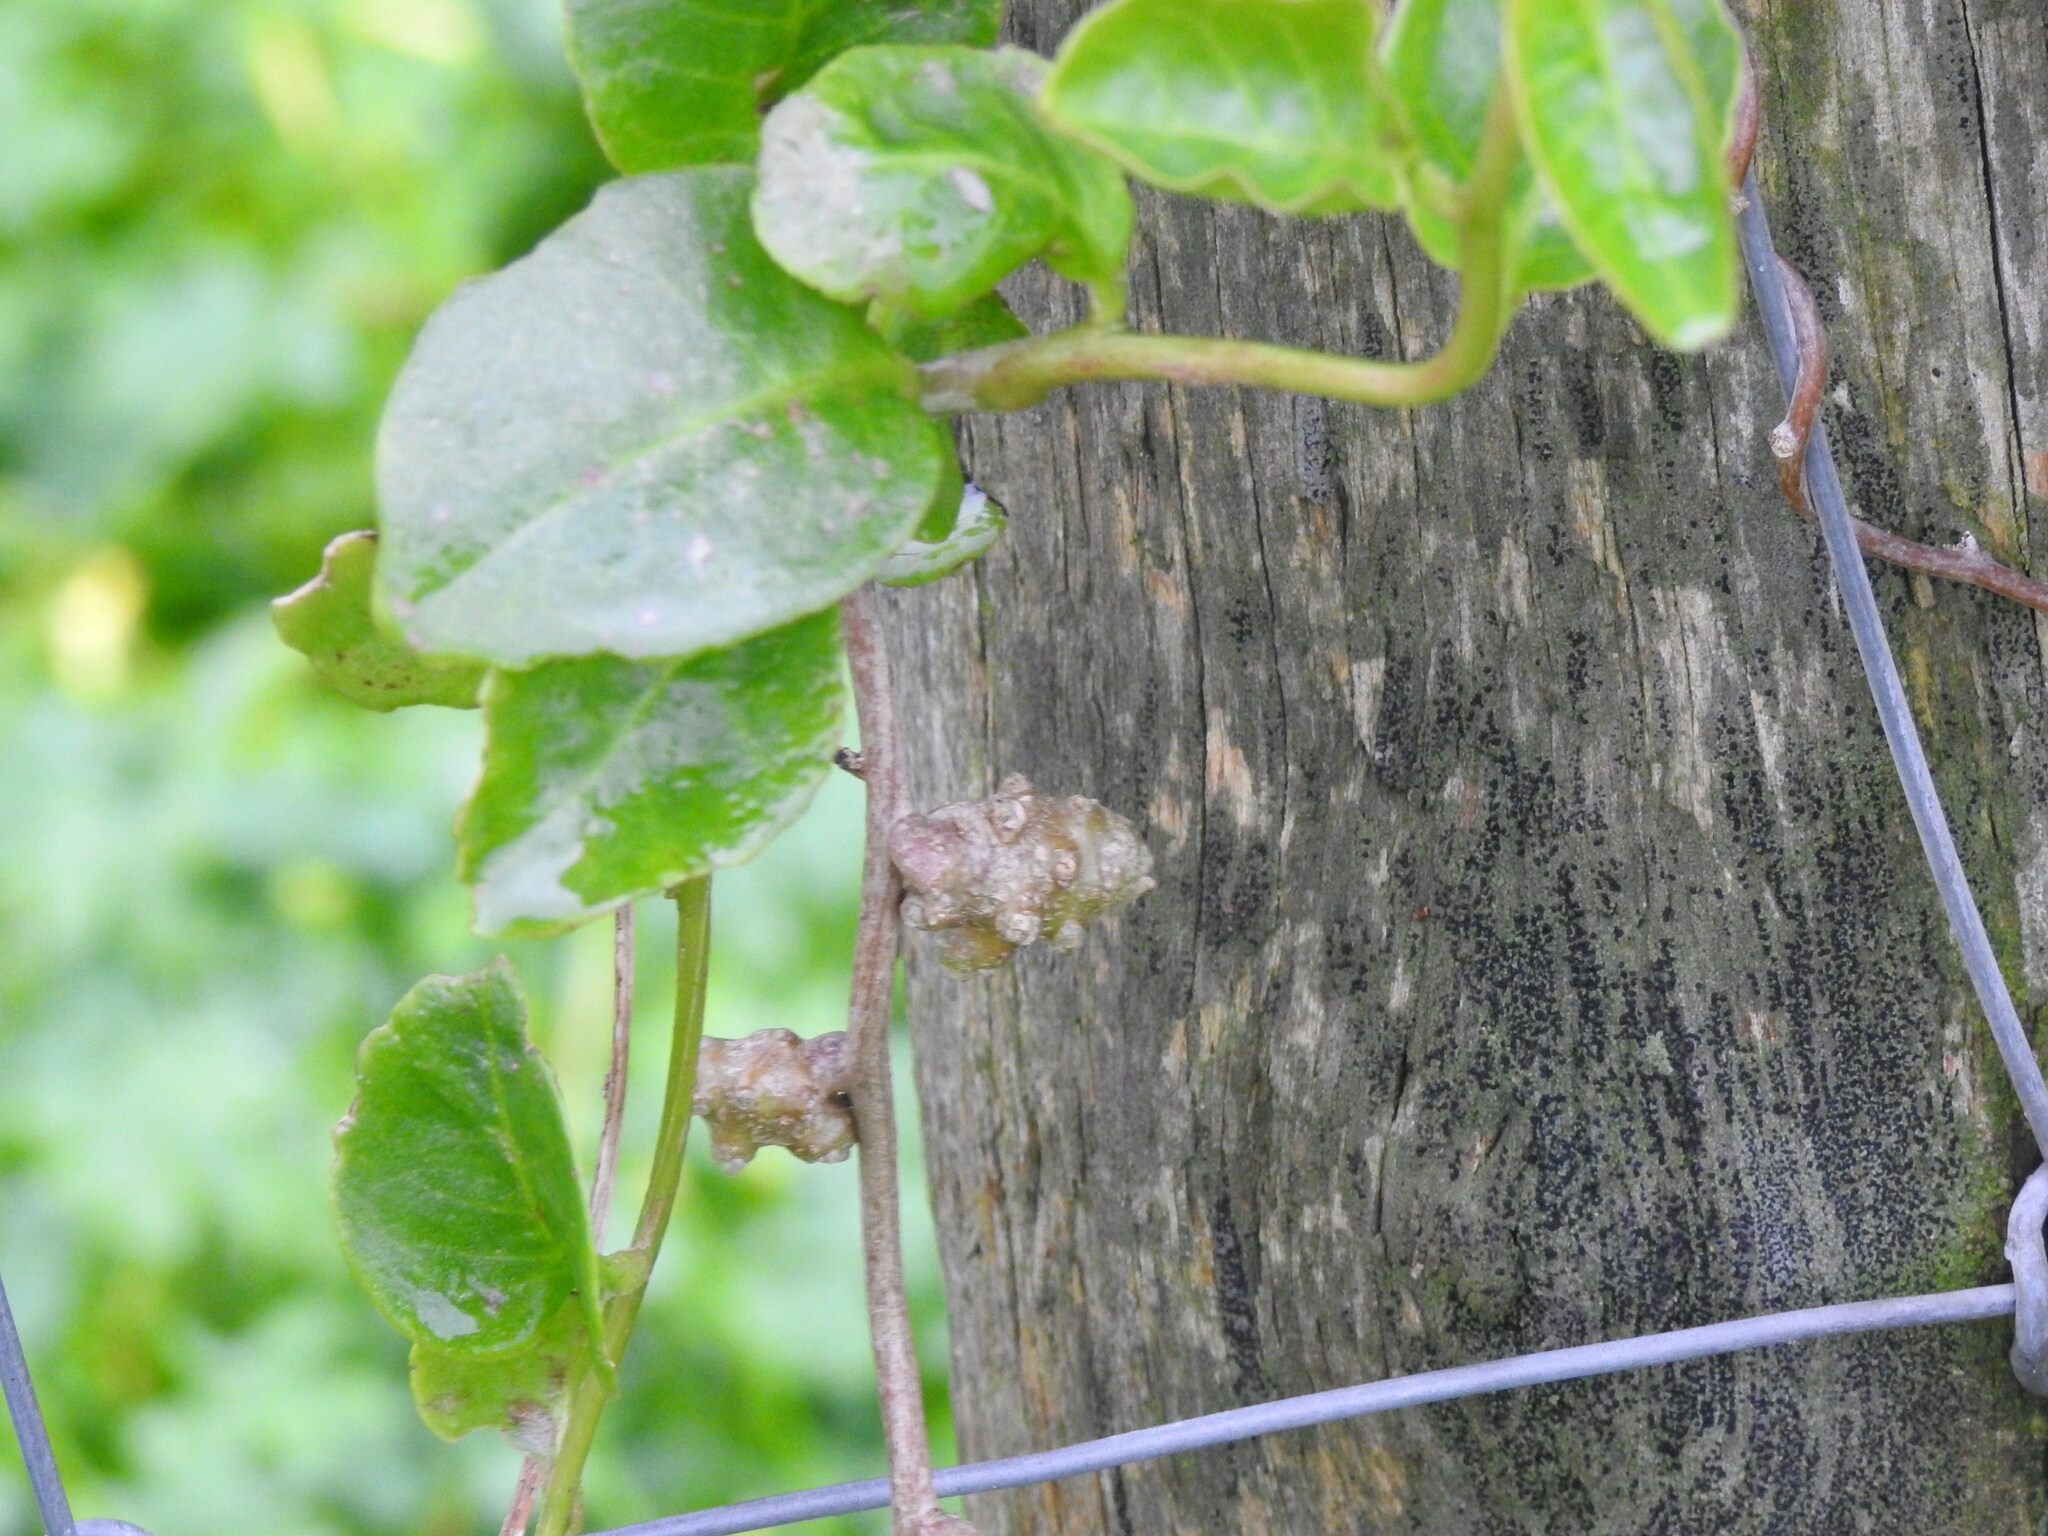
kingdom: Plantae
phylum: Tracheophyta
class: Magnoliopsida
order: Caryophyllales
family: Basellaceae
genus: Anredera
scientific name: Anredera cordifolia
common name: Heartleaf madeiravine
